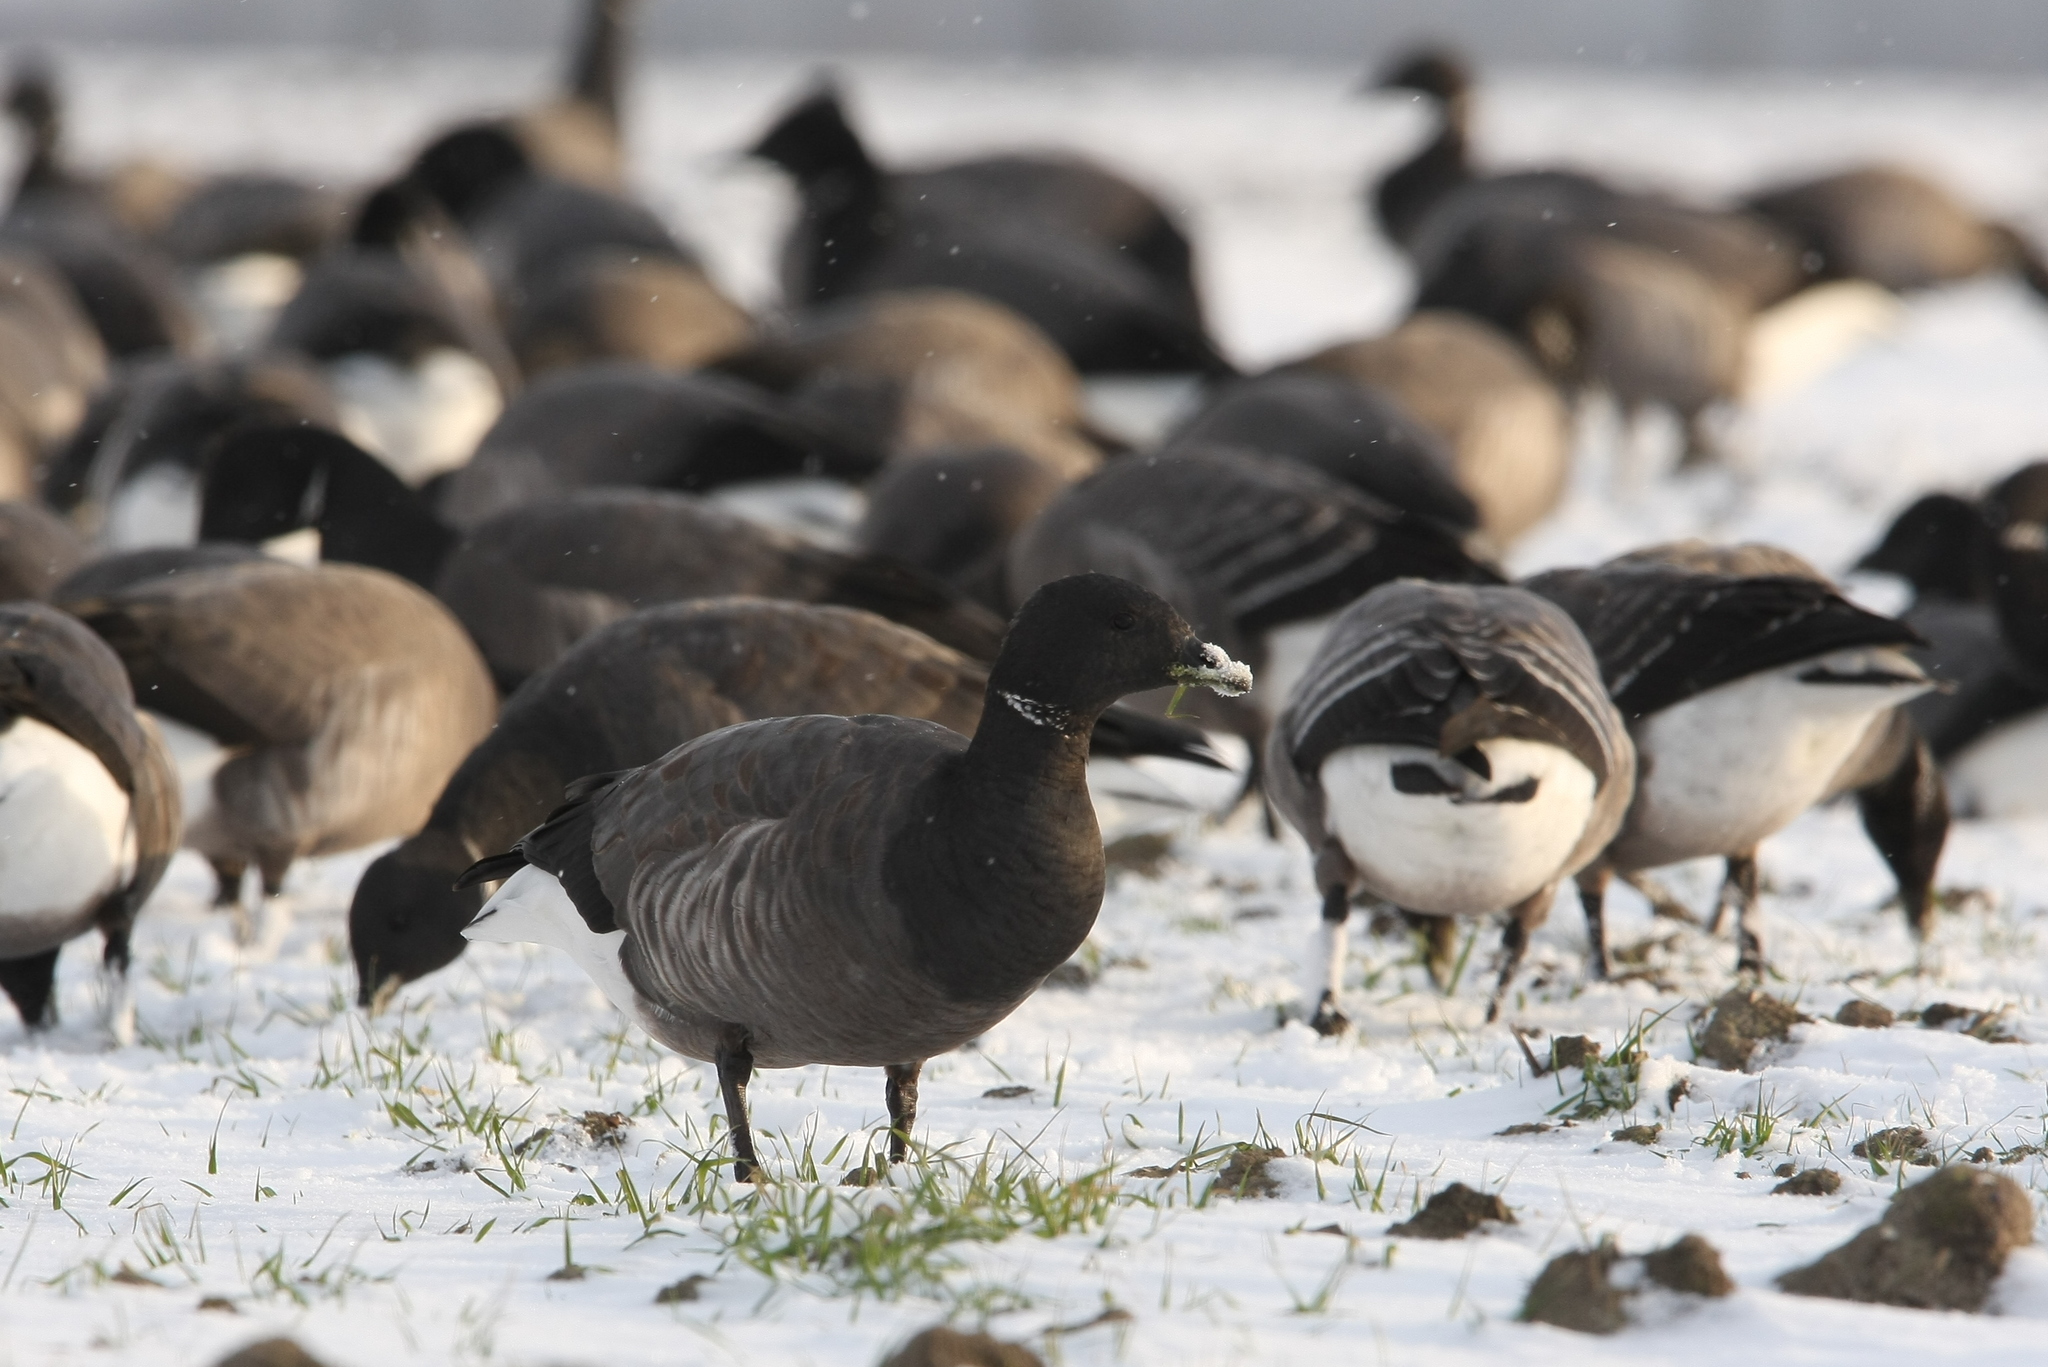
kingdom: Animalia
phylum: Chordata
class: Aves
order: Anseriformes
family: Anatidae
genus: Branta
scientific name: Branta bernicla
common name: Brant goose
